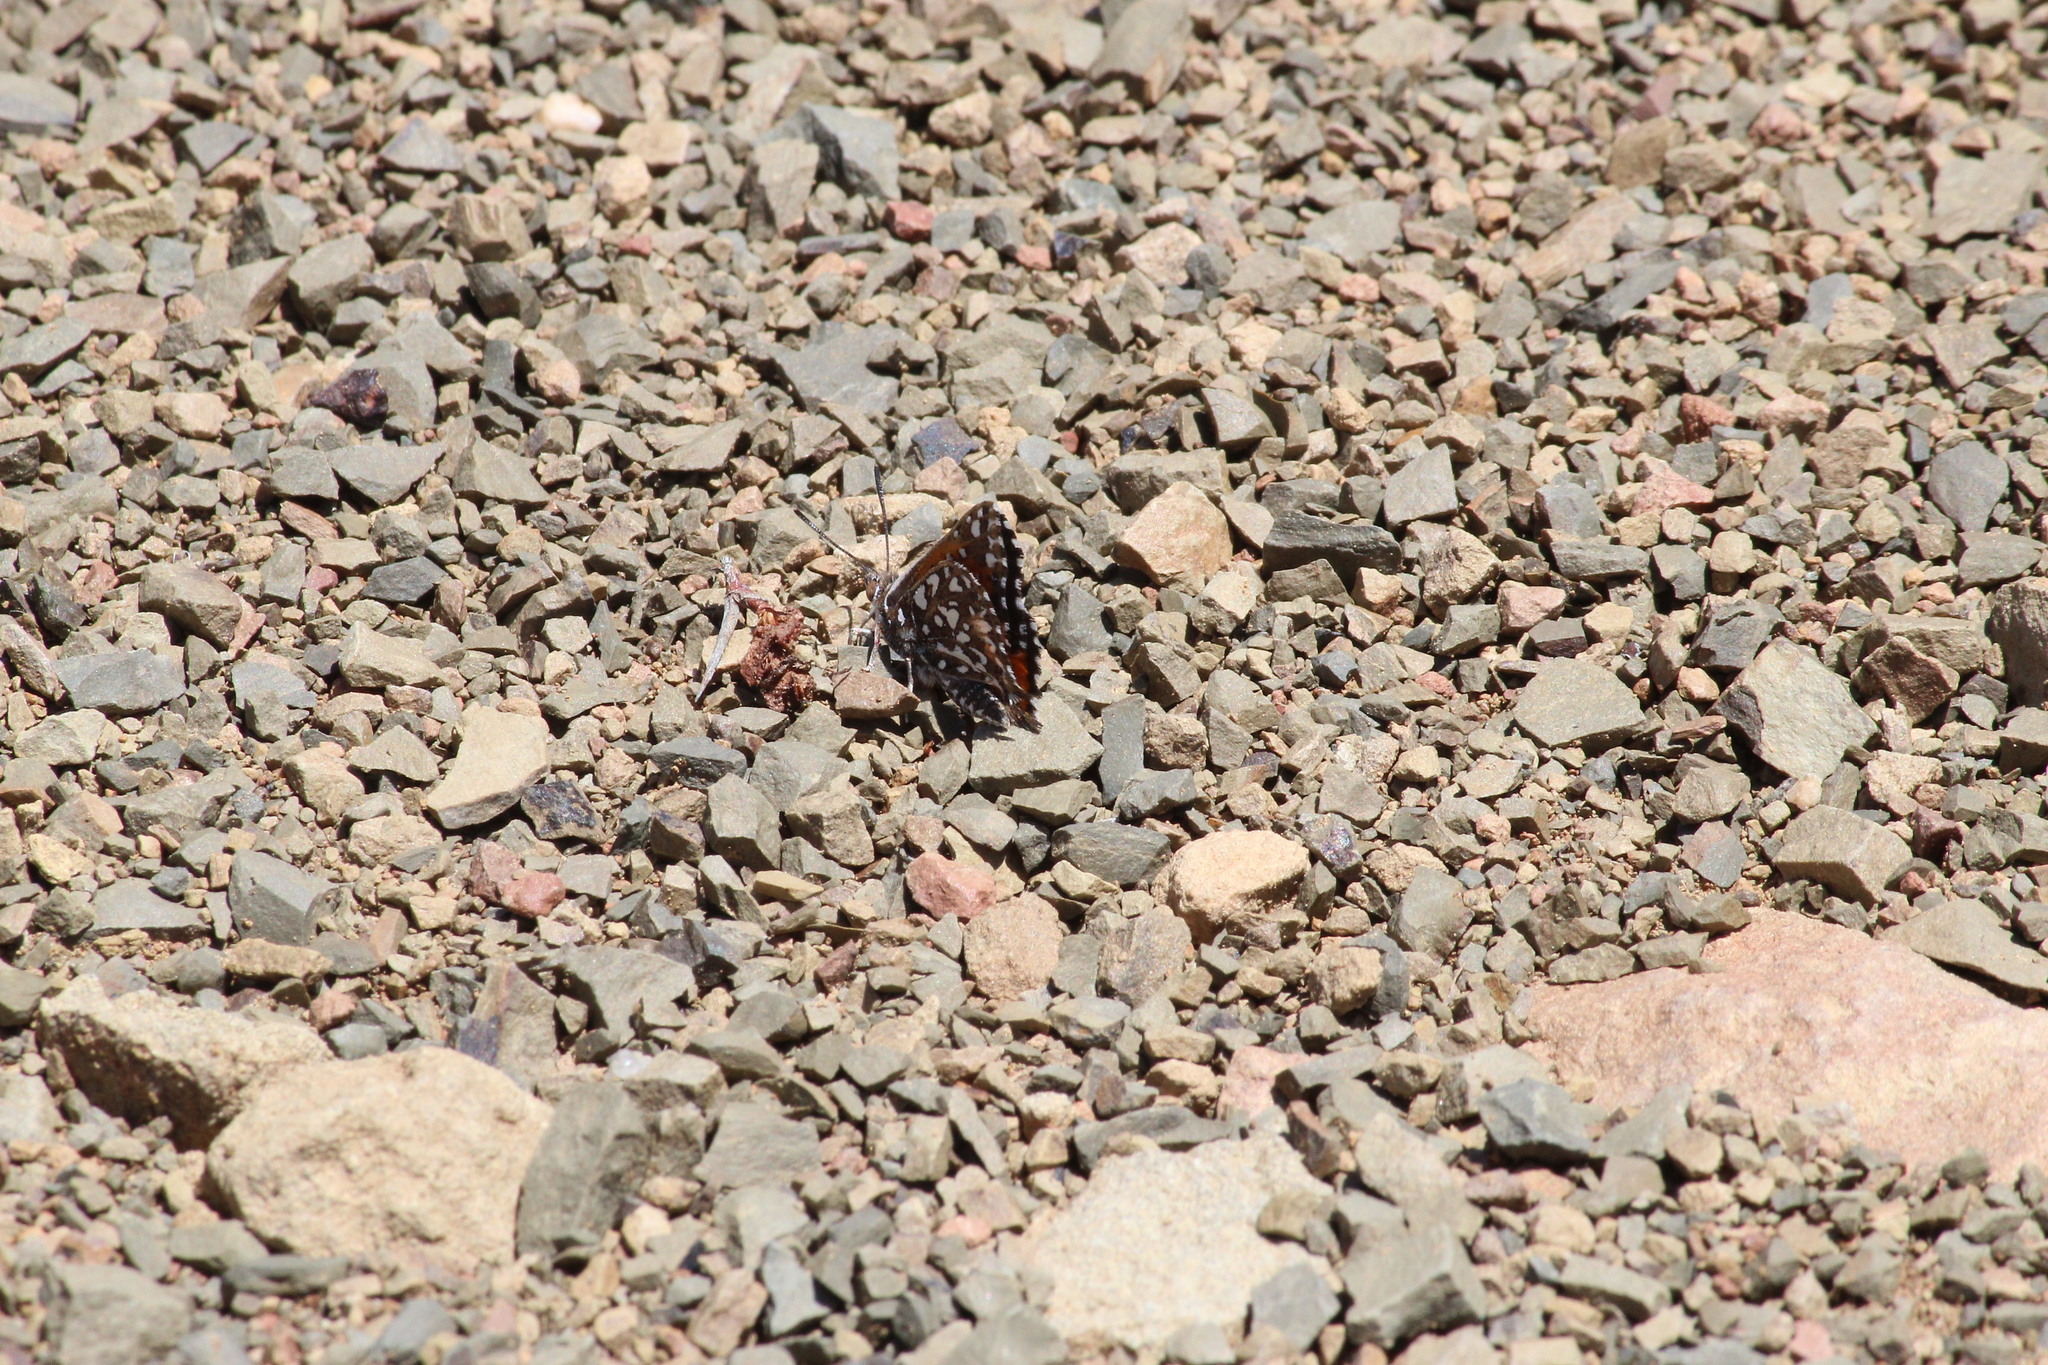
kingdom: Animalia
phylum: Arthropoda
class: Insecta
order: Lepidoptera
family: Lycaenidae
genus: Trimenia
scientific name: Trimenia argyroplaga
